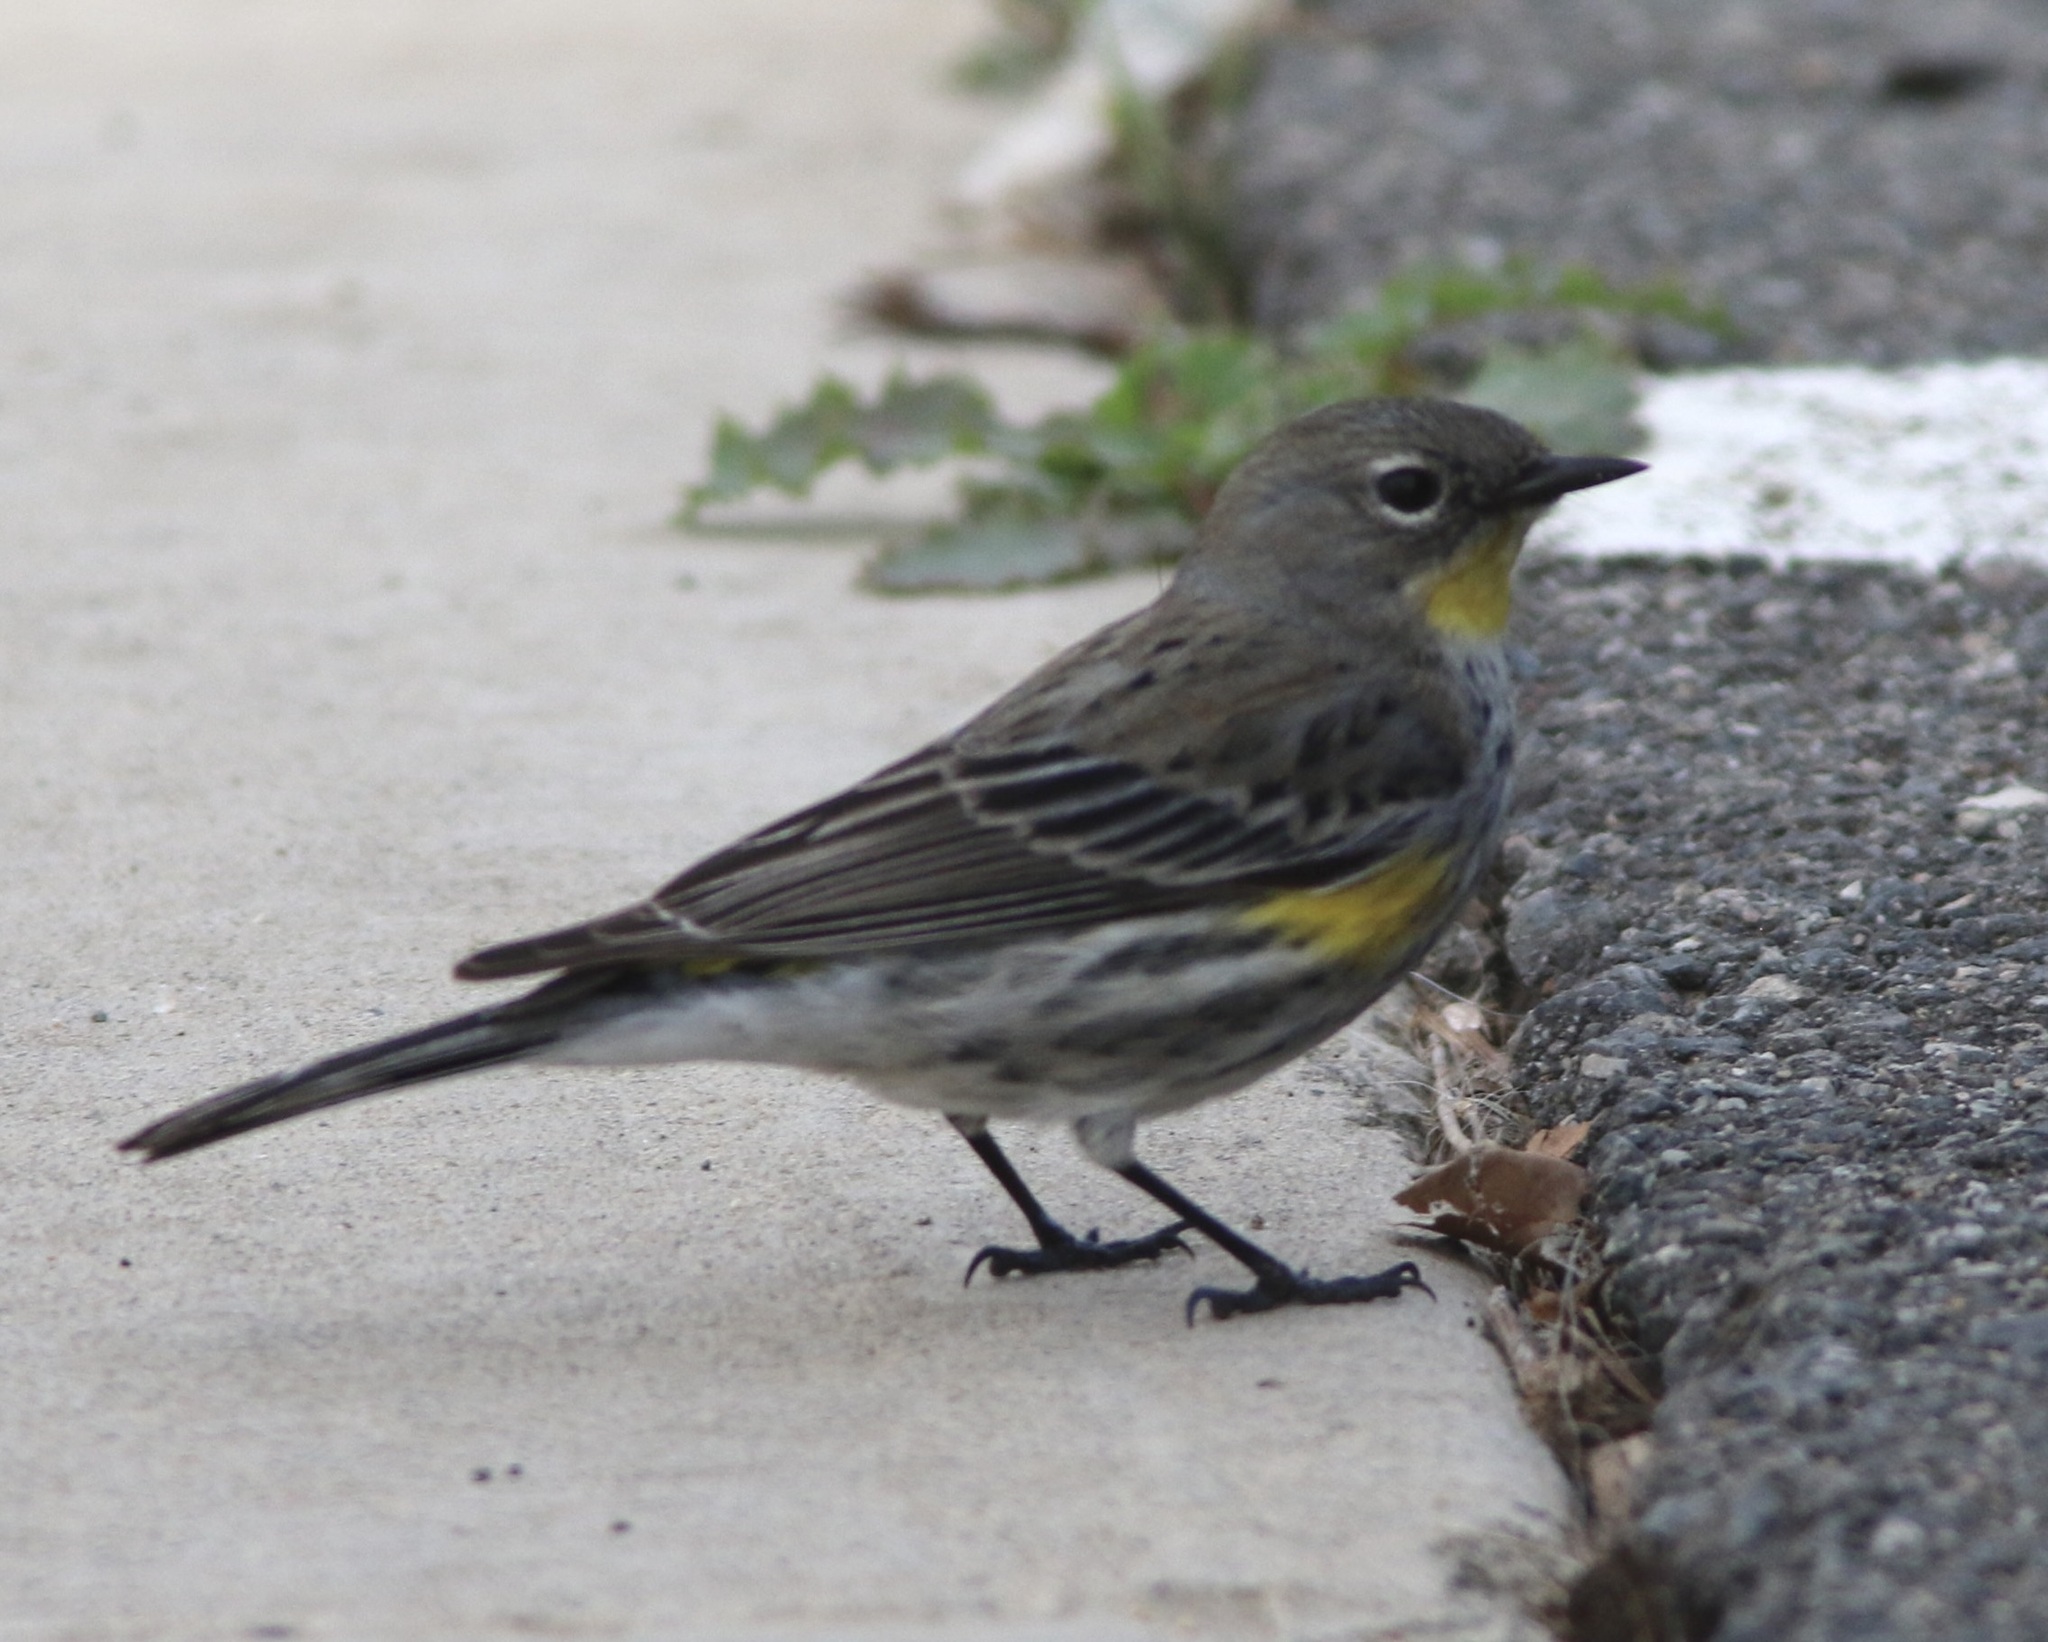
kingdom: Animalia
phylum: Chordata
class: Aves
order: Passeriformes
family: Parulidae
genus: Setophaga
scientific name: Setophaga coronata
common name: Myrtle warbler
